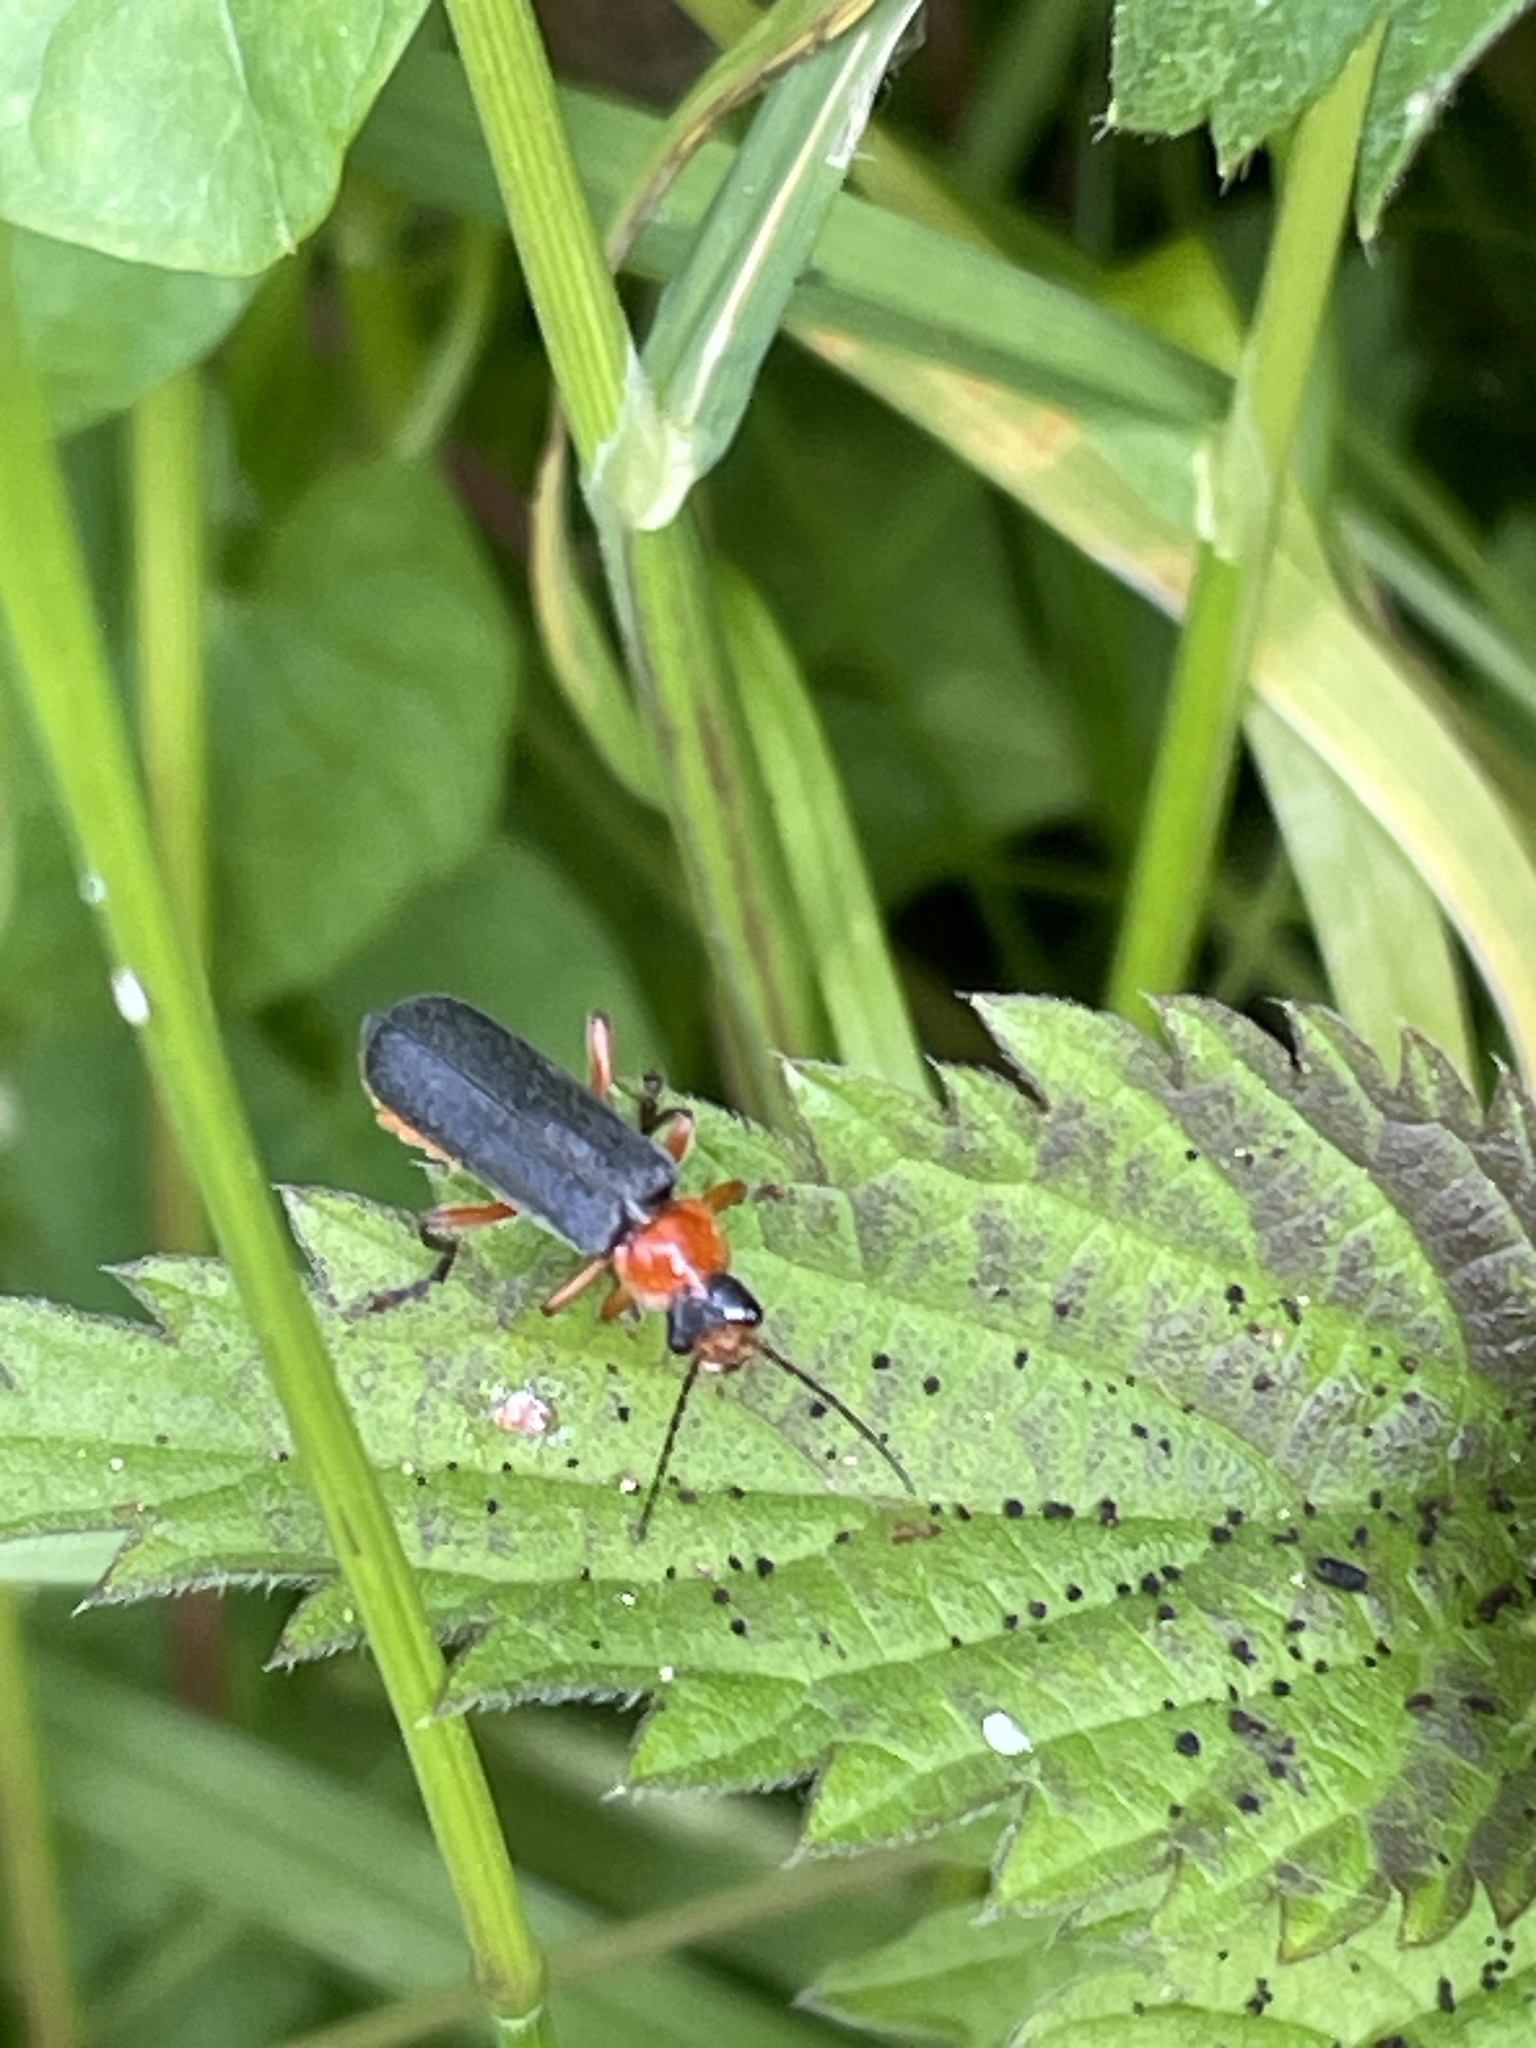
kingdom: Animalia
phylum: Arthropoda
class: Insecta
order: Coleoptera
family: Cantharidae
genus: Cantharis
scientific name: Cantharis pellucida
